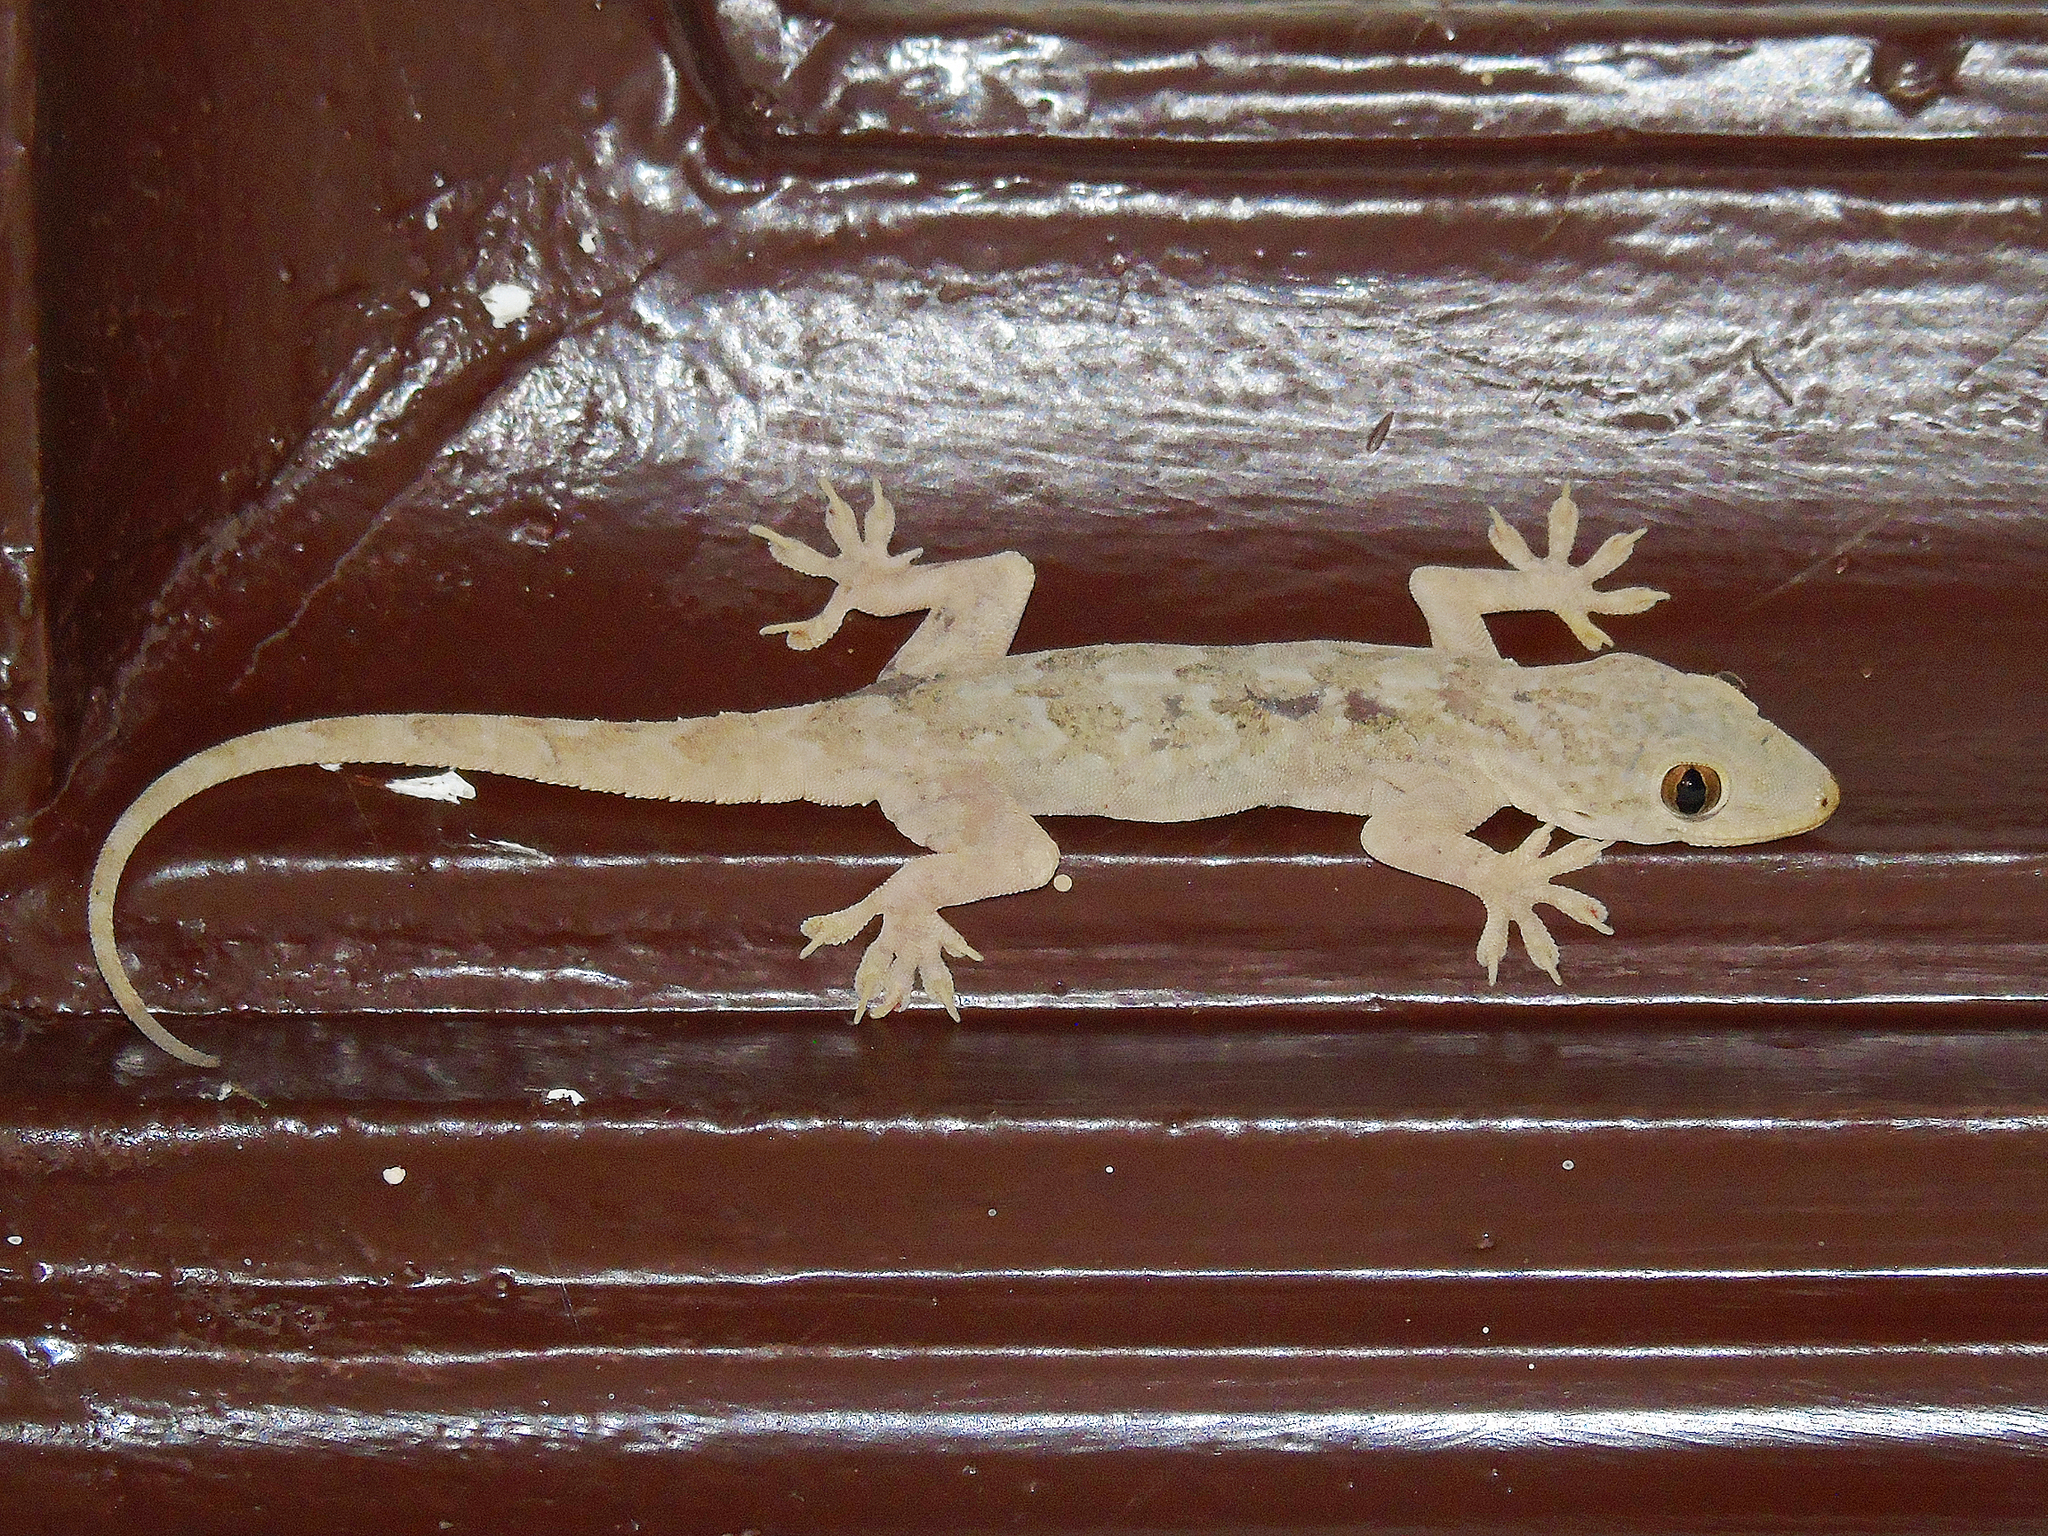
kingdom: Animalia
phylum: Chordata
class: Squamata
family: Gekkonidae
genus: Hemidactylus
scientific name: Hemidactylus flaviviridis
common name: Northern house gecko
